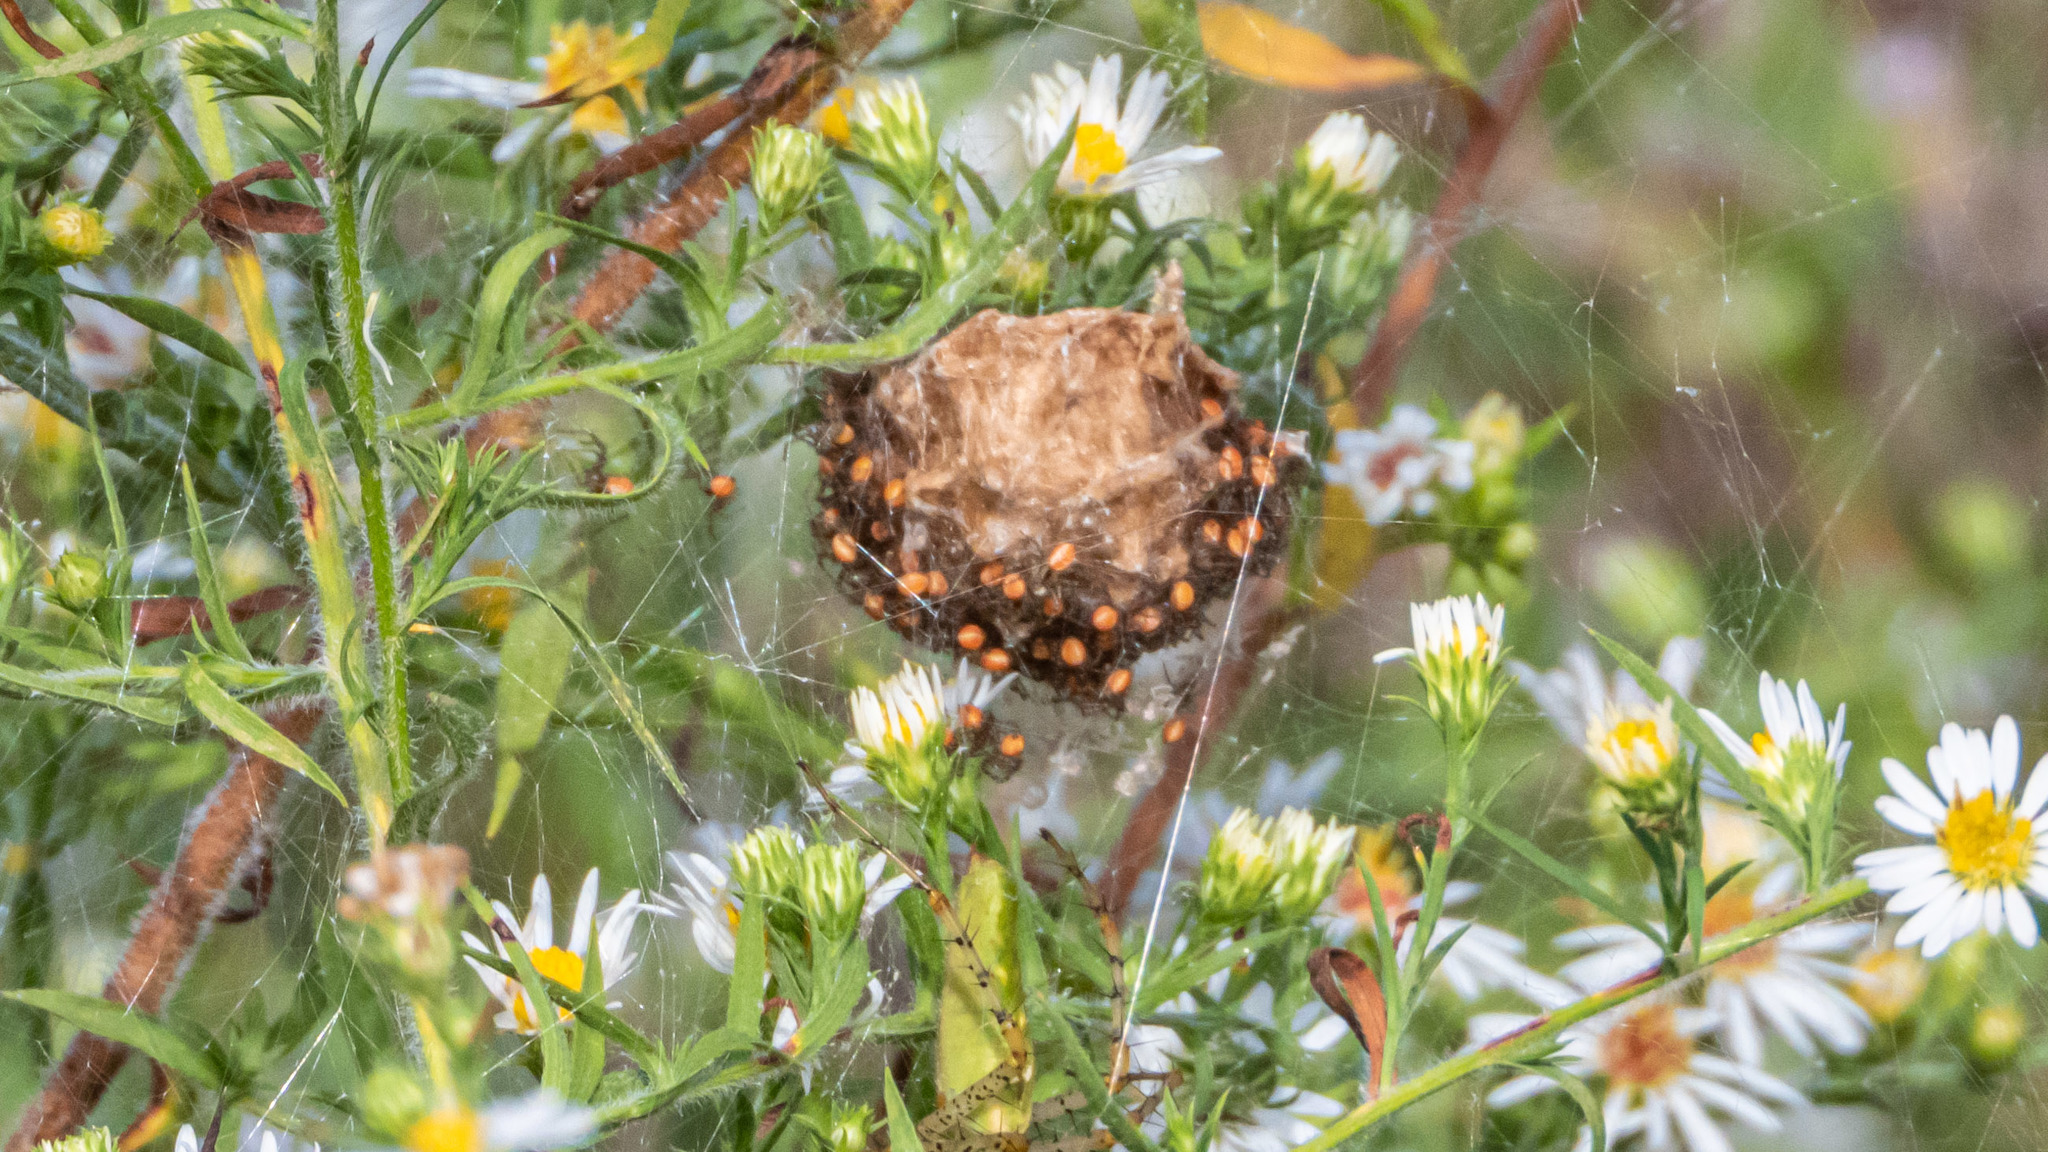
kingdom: Animalia
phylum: Arthropoda
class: Arachnida
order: Araneae
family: Oxyopidae
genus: Peucetia
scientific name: Peucetia viridans
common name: Lynx spiders
